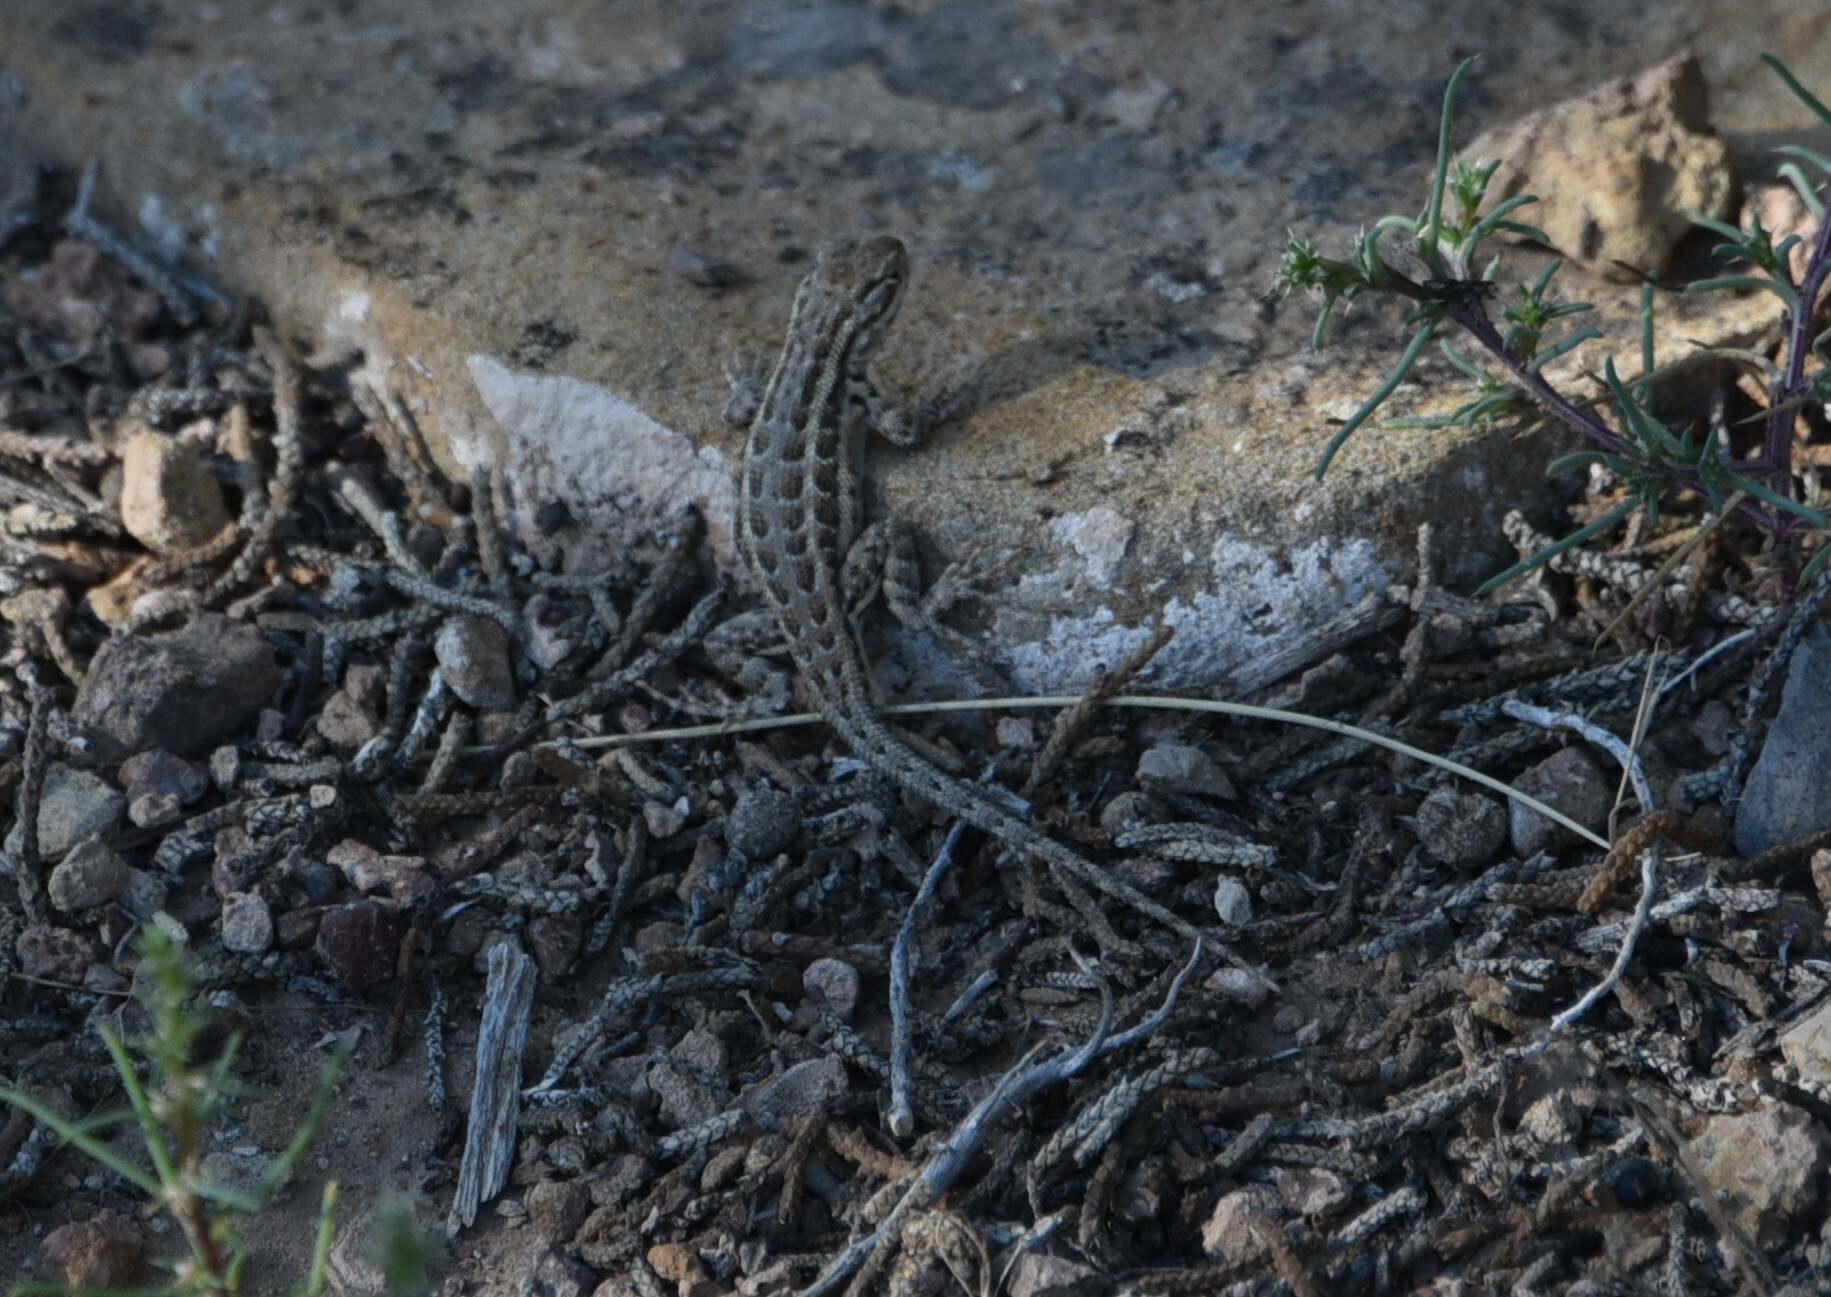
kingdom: Animalia
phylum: Chordata
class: Squamata
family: Phrynosomatidae
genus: Sceloporus
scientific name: Sceloporus graciosus
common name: Sagebrush lizard
